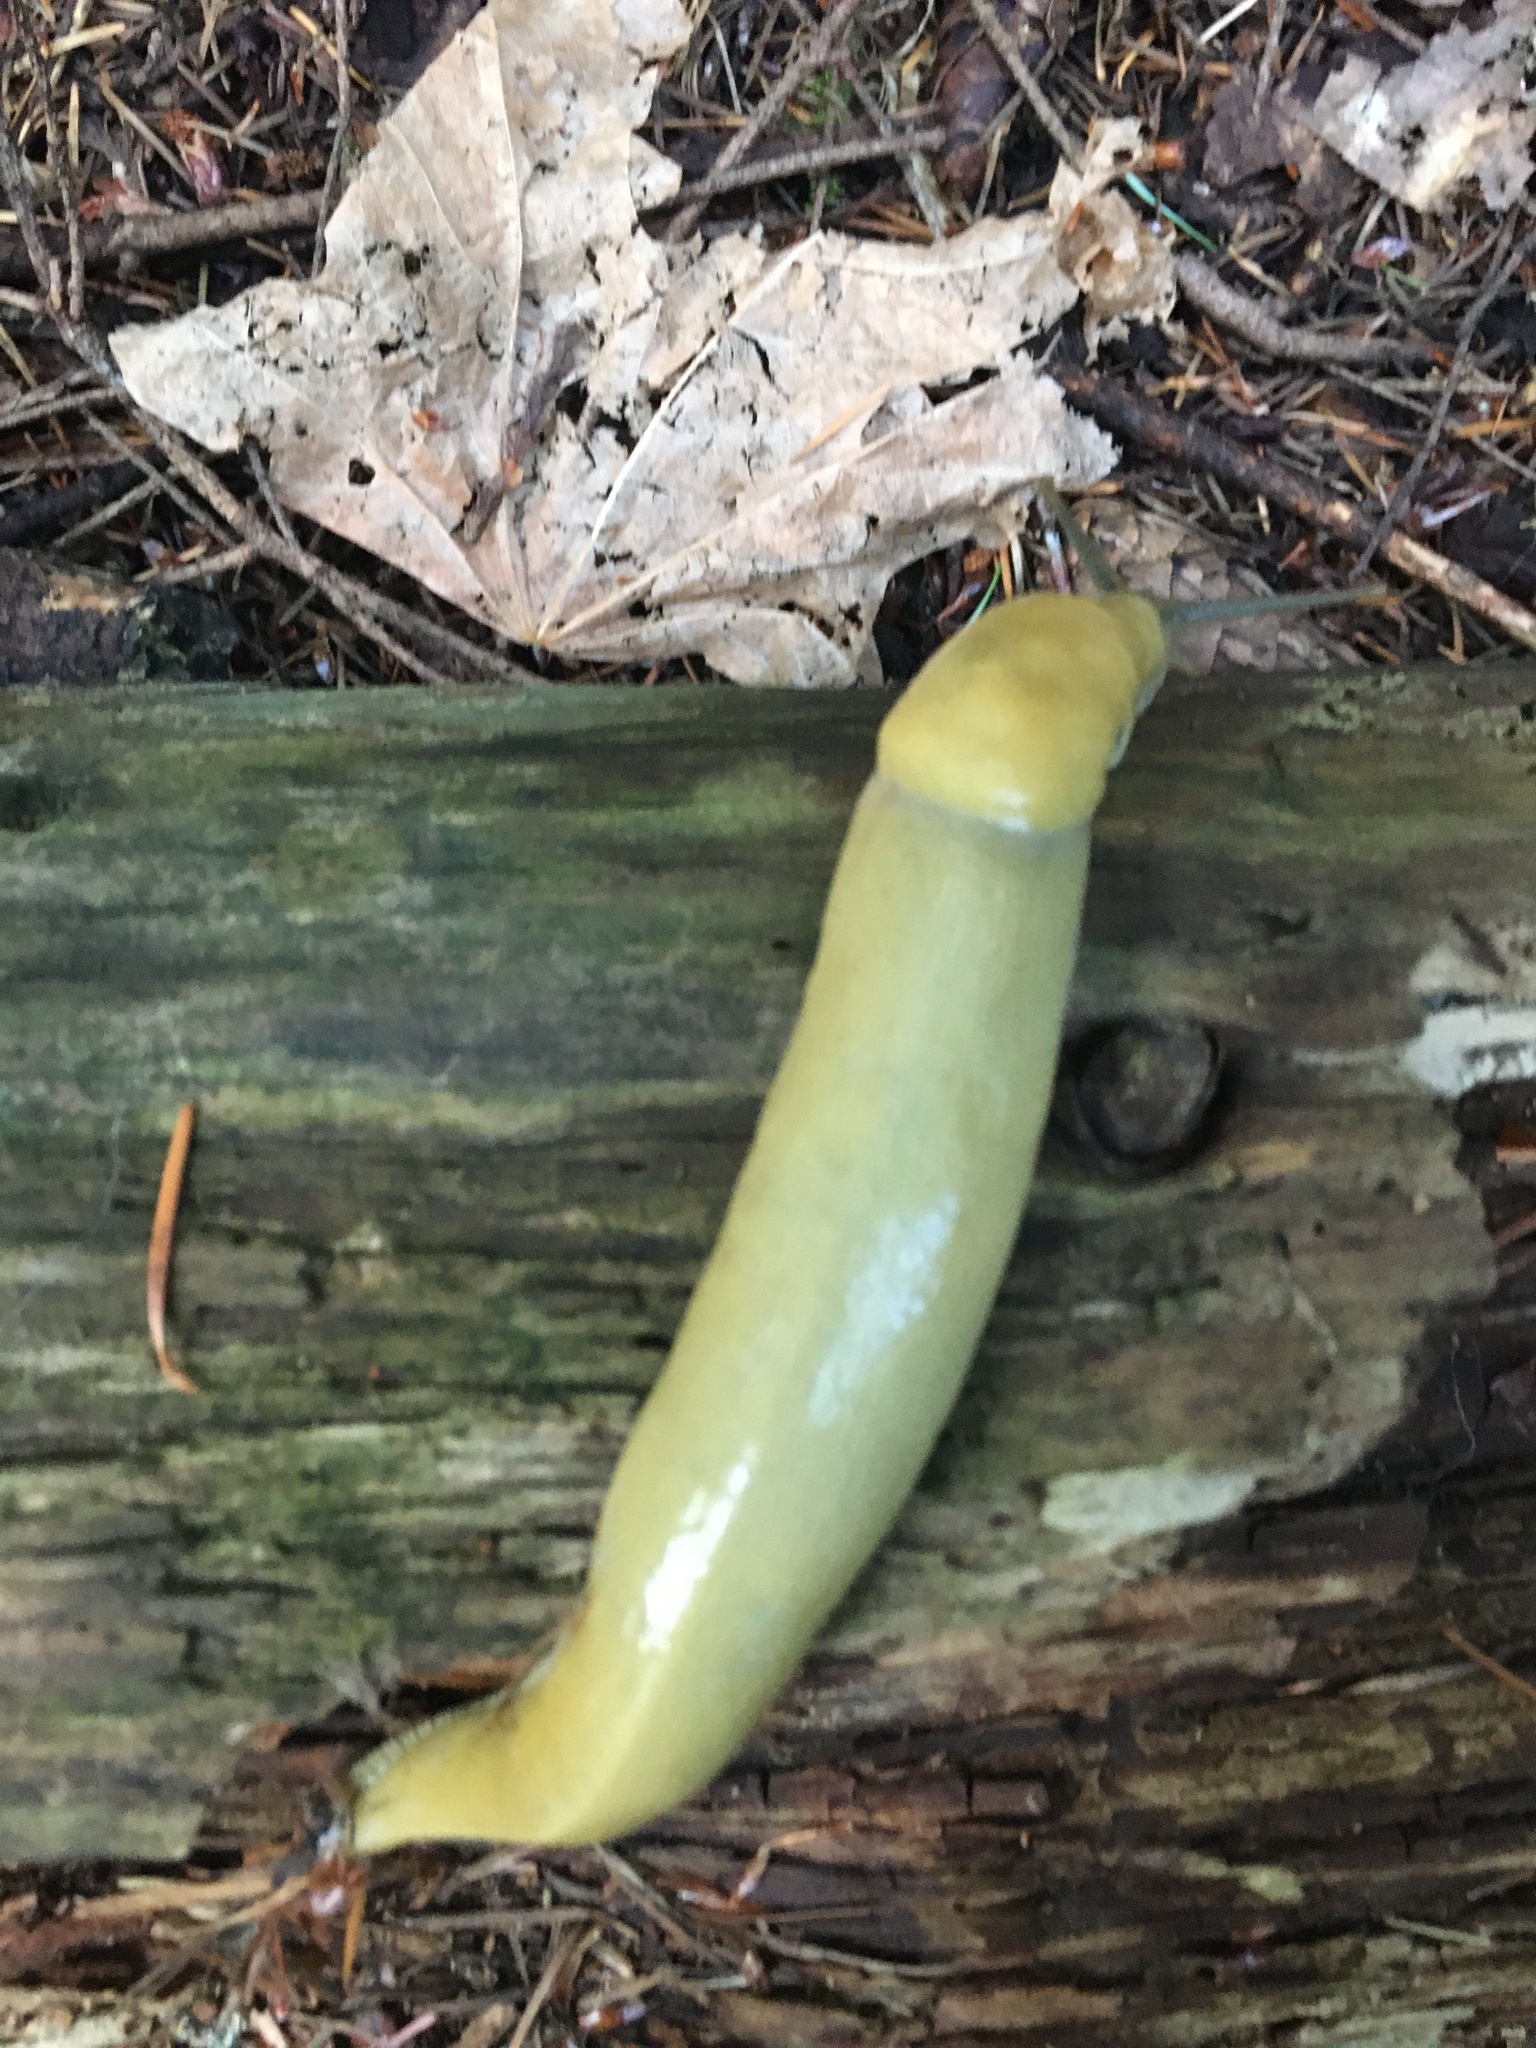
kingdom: Animalia
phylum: Mollusca
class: Gastropoda
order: Stylommatophora
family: Ariolimacidae
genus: Ariolimax
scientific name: Ariolimax columbianus
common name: Pacific banana slug
